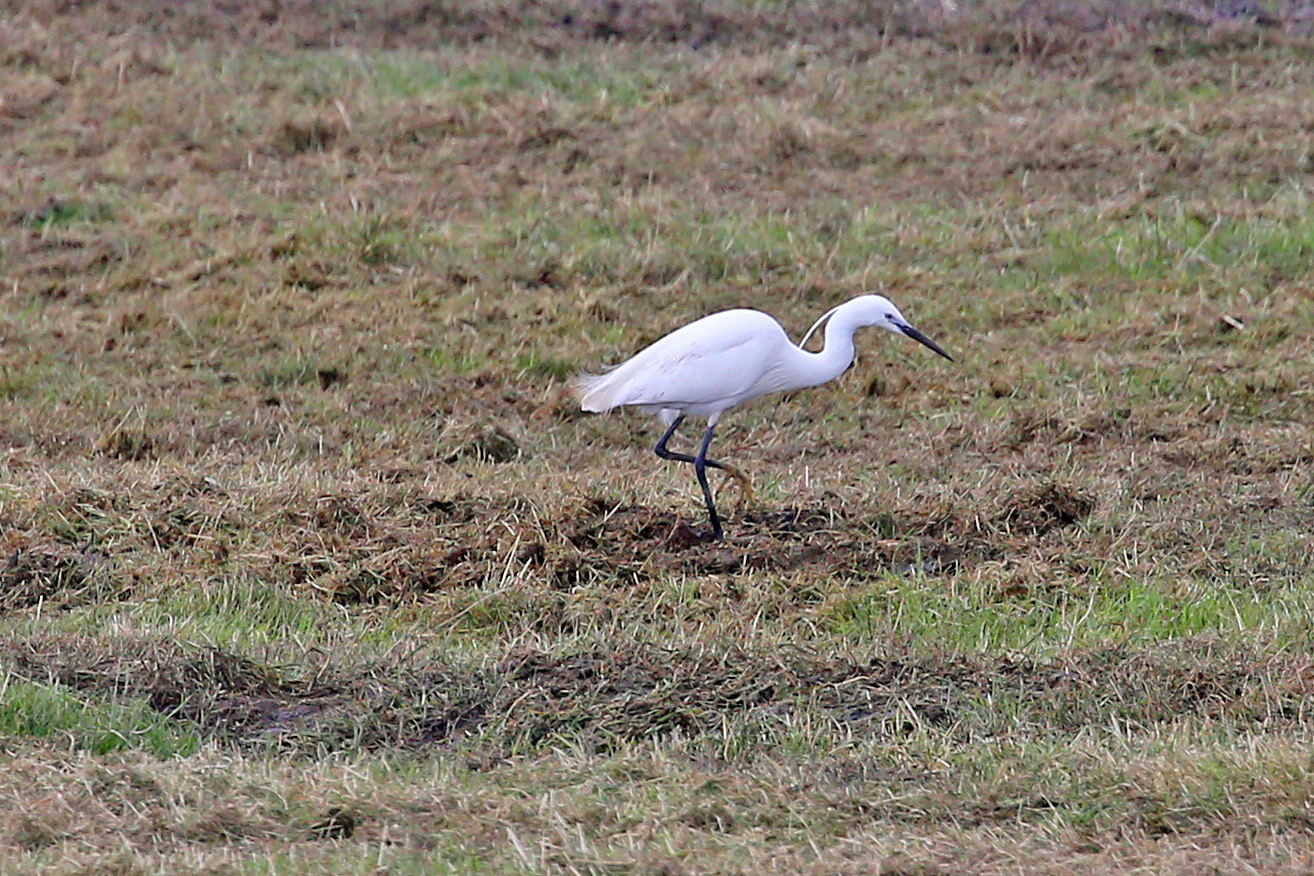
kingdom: Animalia
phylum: Chordata
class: Aves
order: Pelecaniformes
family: Ardeidae
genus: Egretta
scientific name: Egretta garzetta
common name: Little egret
